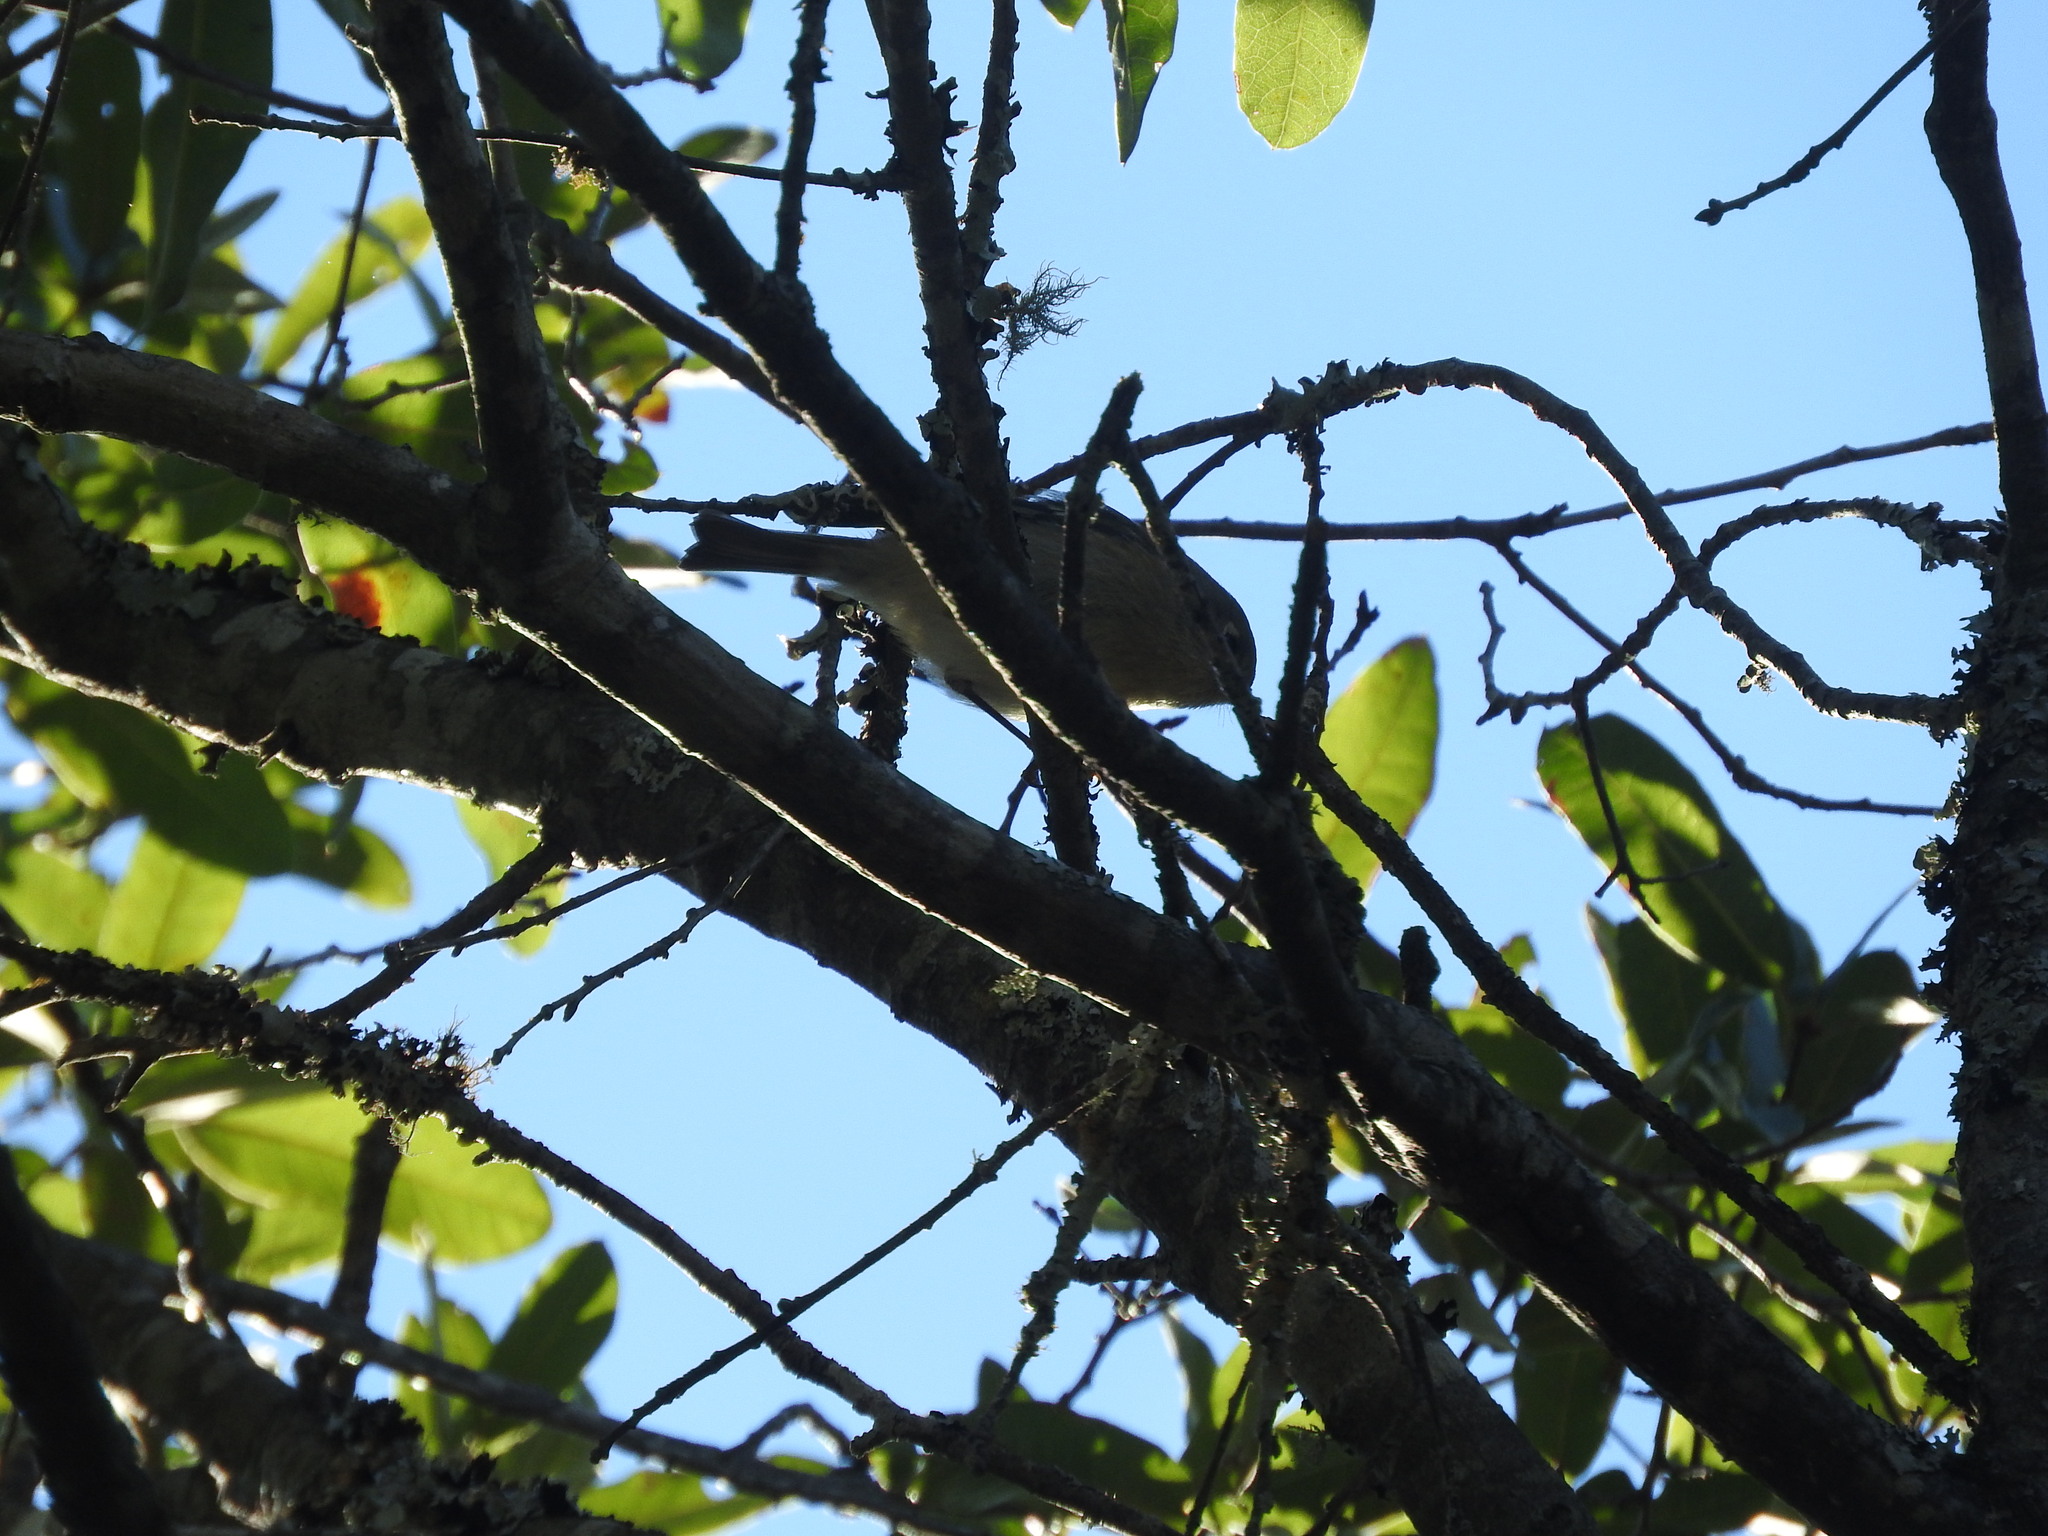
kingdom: Animalia
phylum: Chordata
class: Aves
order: Passeriformes
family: Regulidae
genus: Regulus
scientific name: Regulus calendula
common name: Ruby-crowned kinglet
